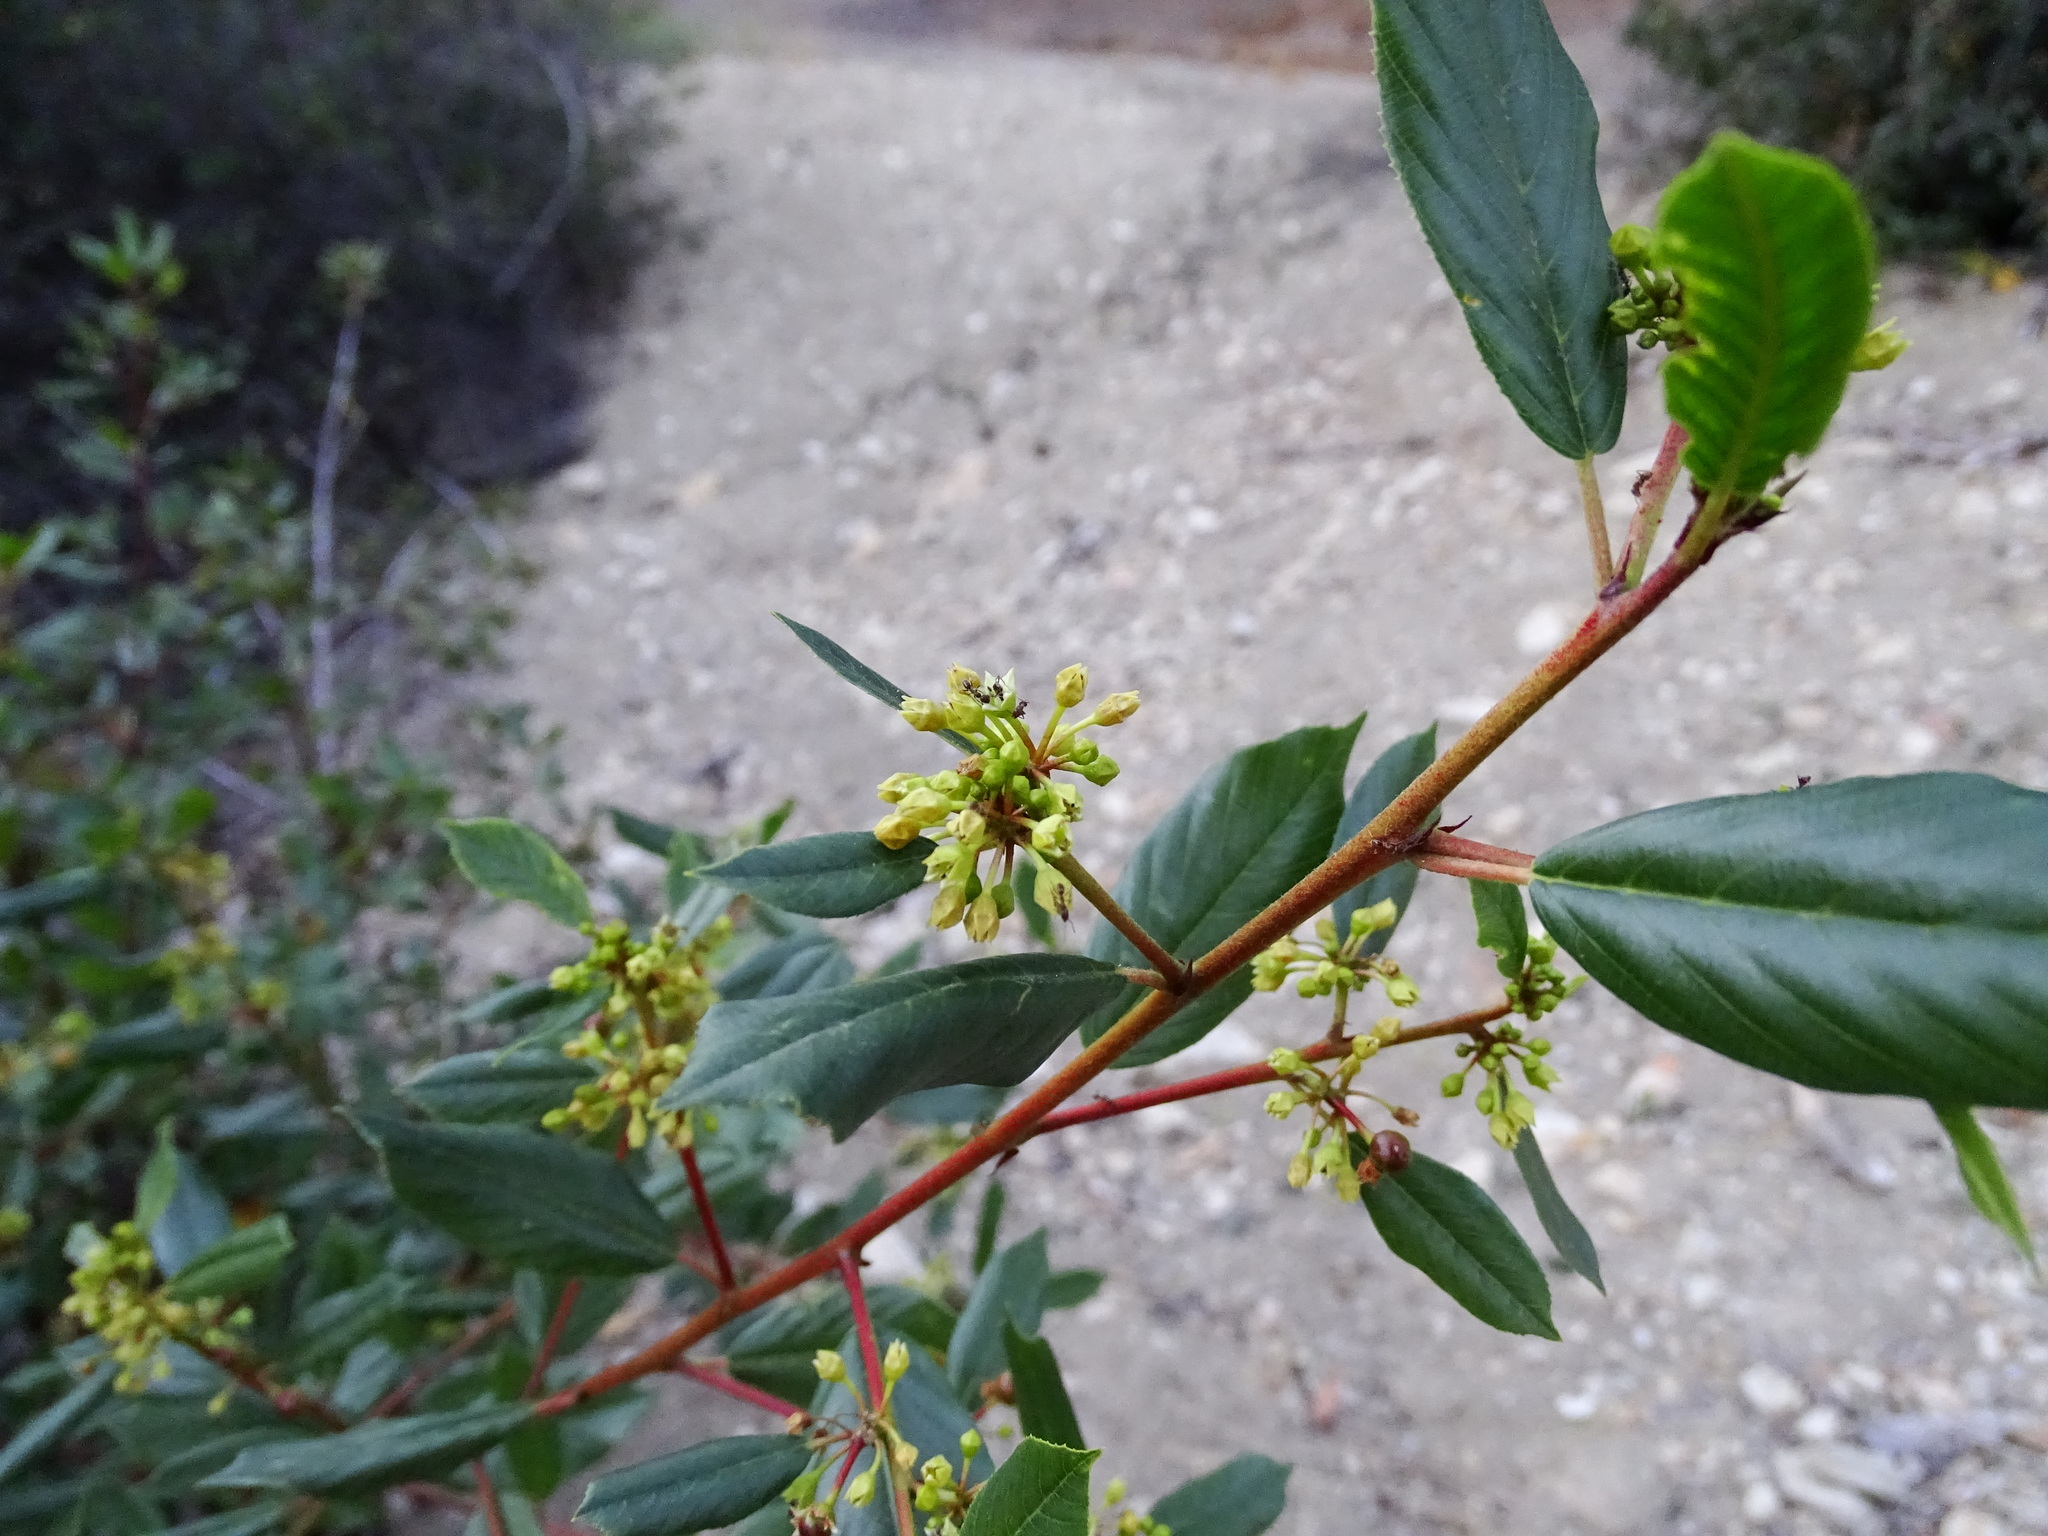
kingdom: Plantae
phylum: Tracheophyta
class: Magnoliopsida
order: Rosales
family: Rhamnaceae
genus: Frangula
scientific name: Frangula californica
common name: California buckthorn
